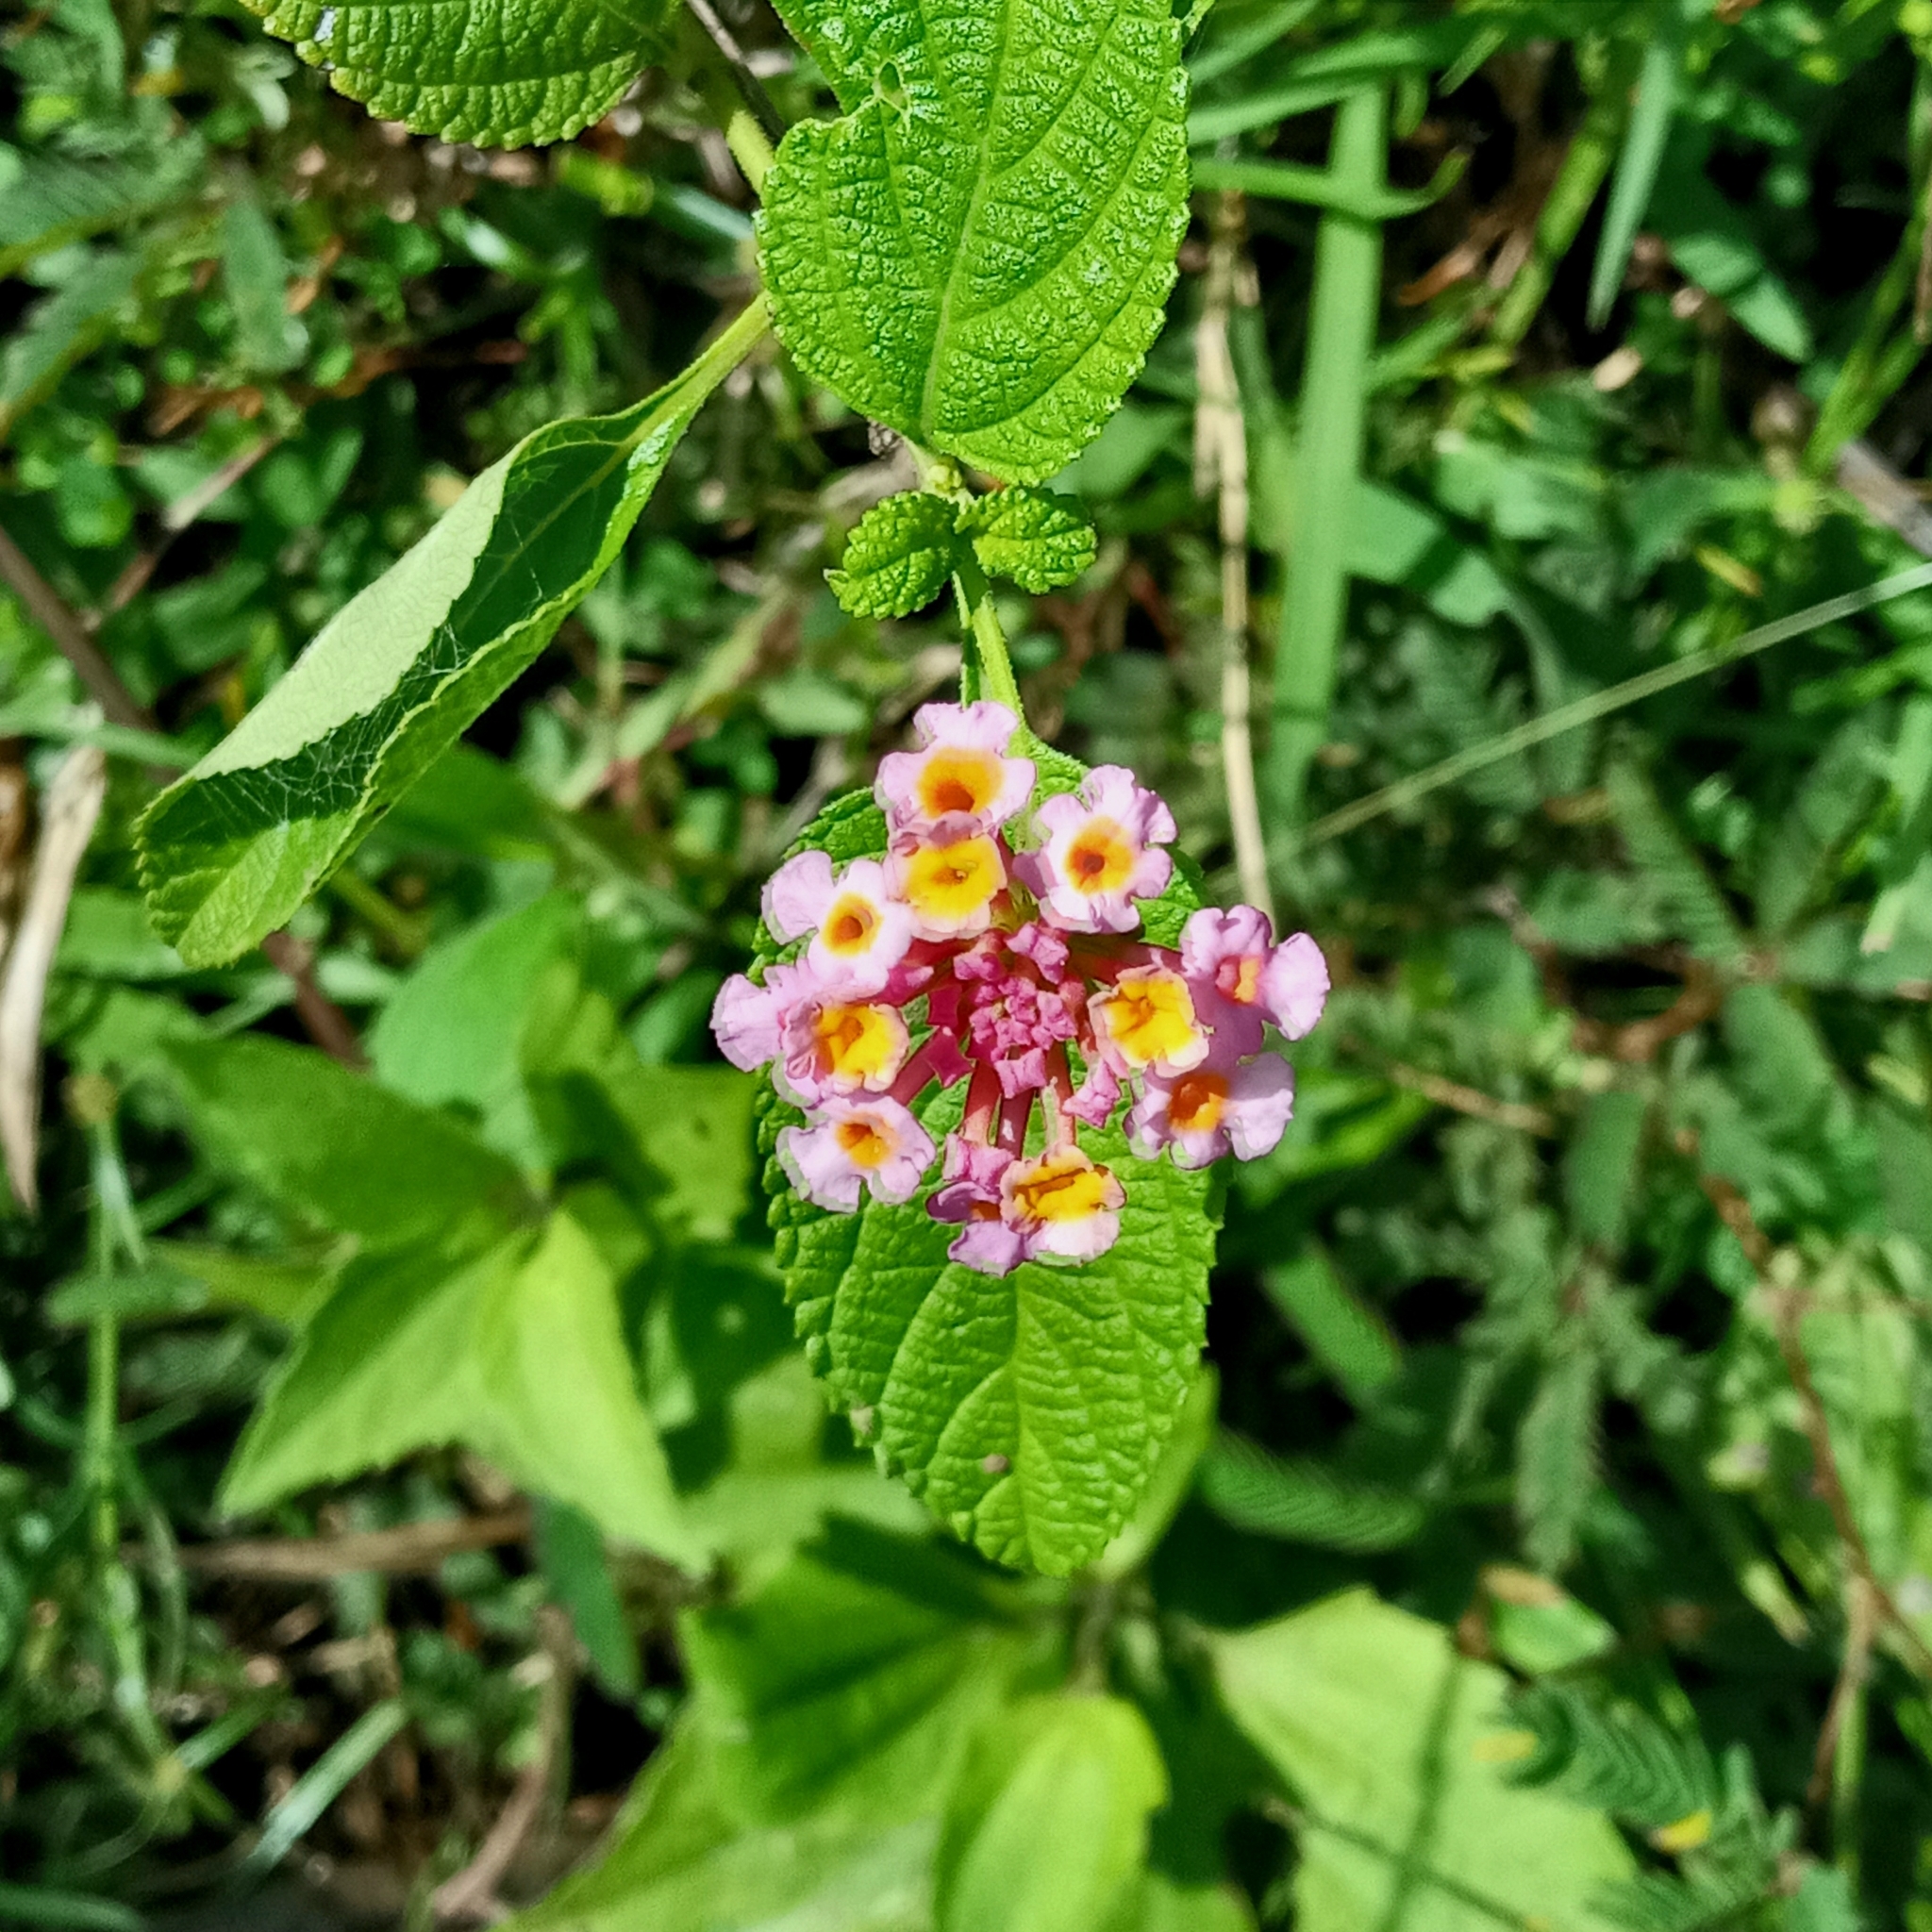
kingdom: Plantae
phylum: Tracheophyta
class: Magnoliopsida
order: Lamiales
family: Verbenaceae
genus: Lantana
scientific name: Lantana camara
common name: Lantana
